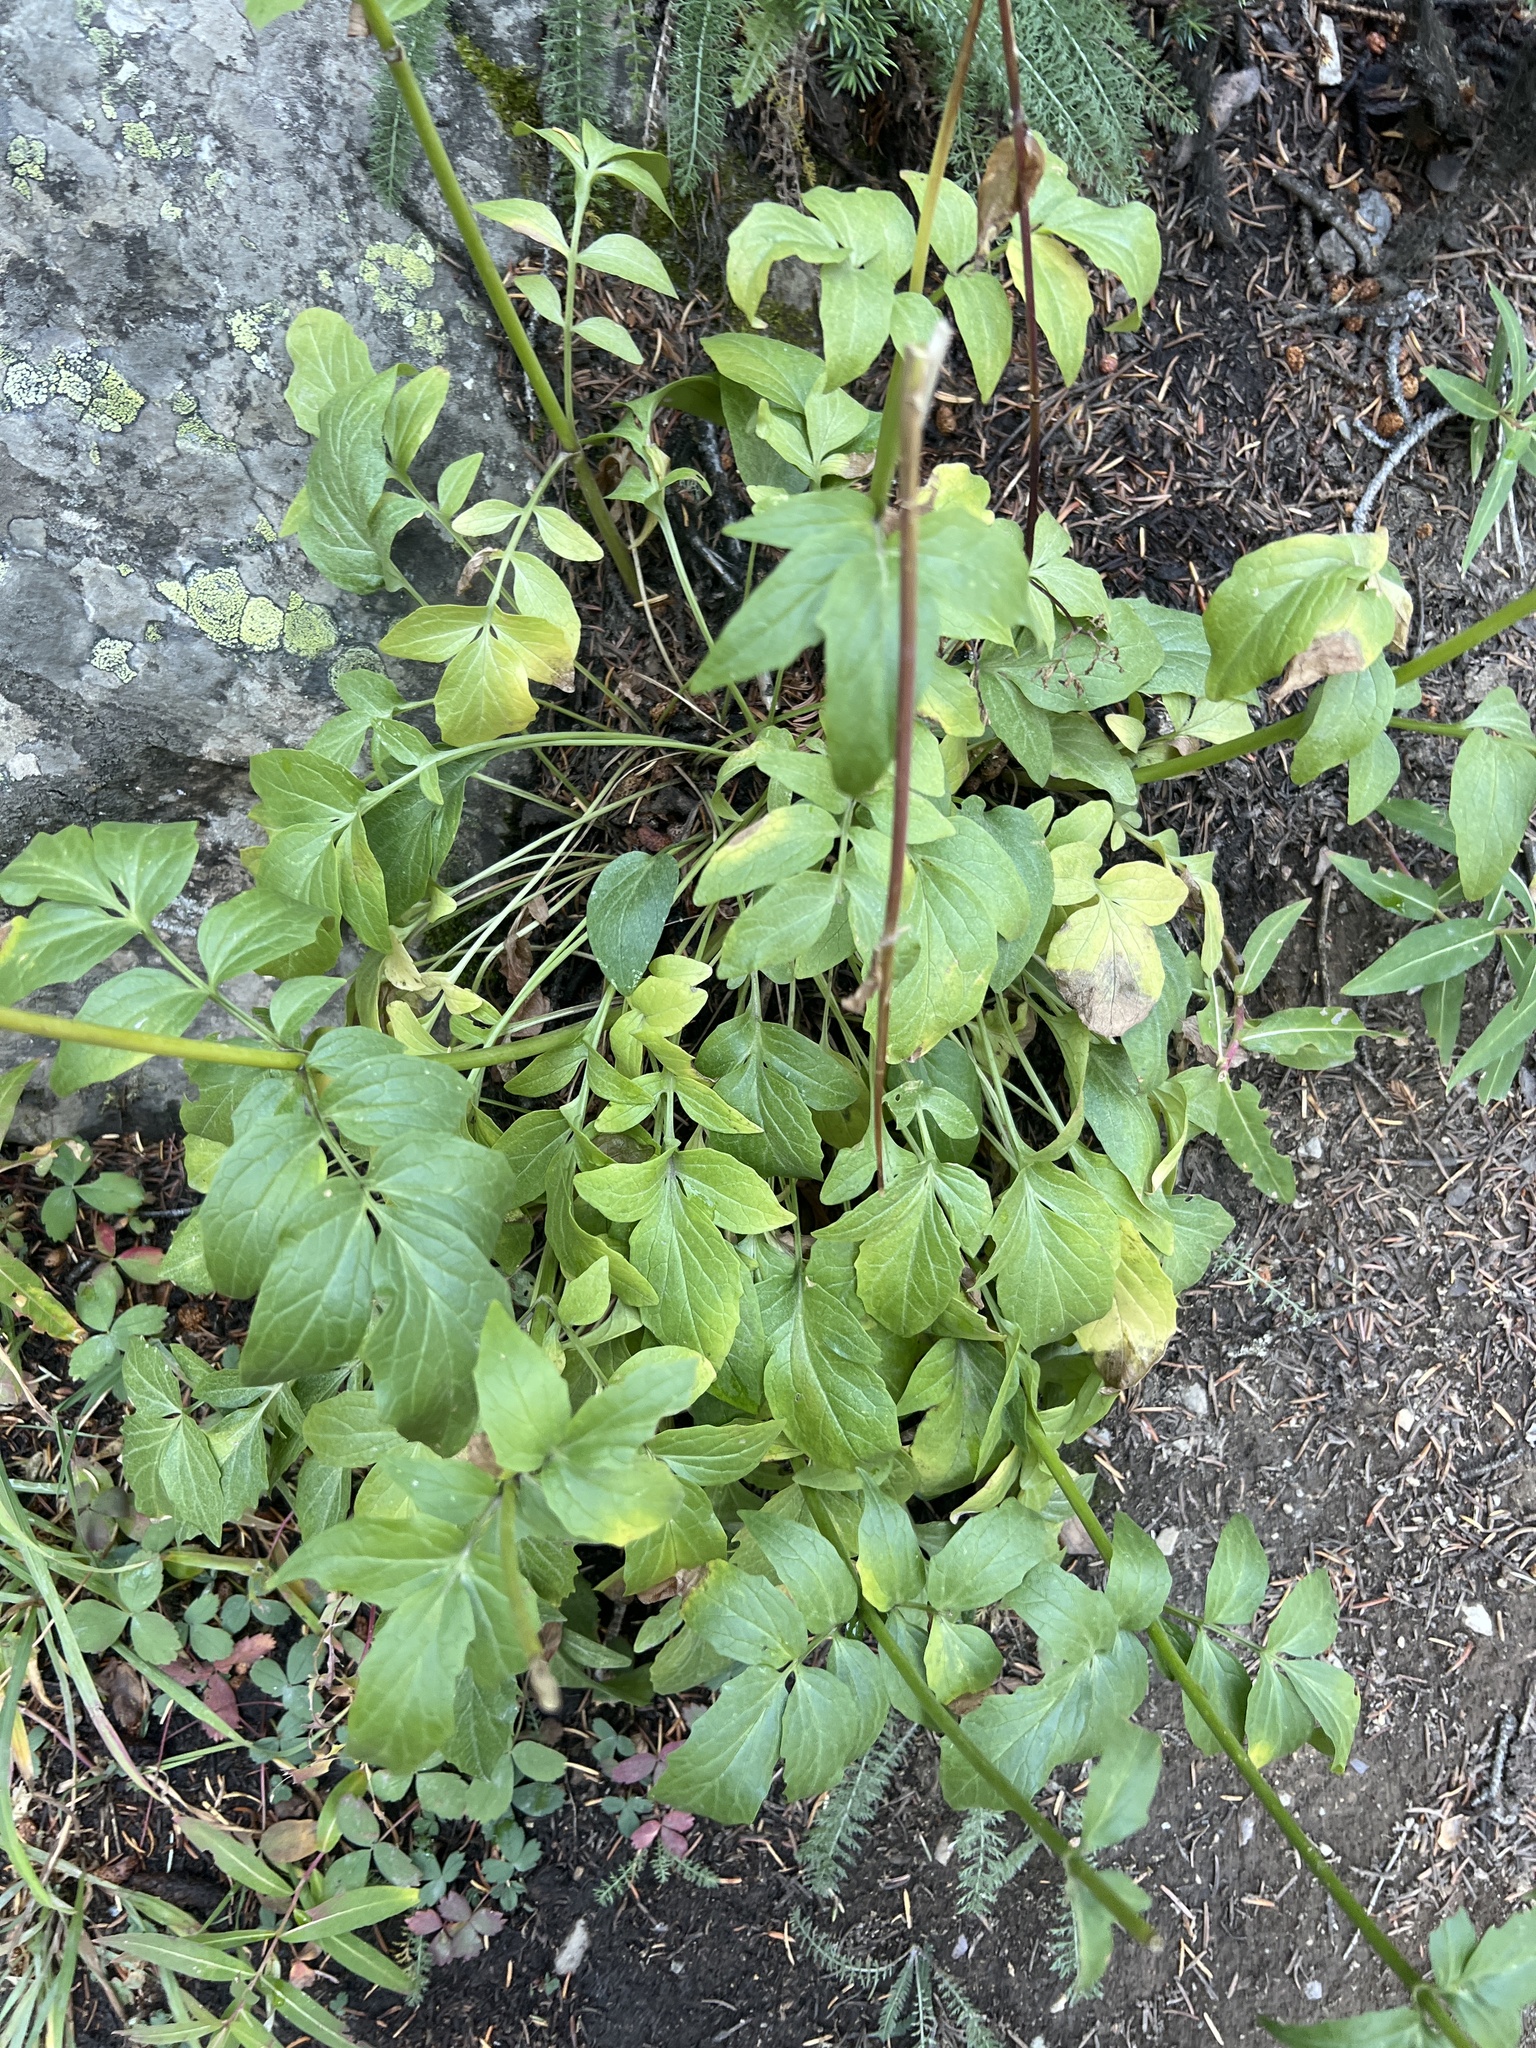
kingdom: Plantae
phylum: Tracheophyta
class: Magnoliopsida
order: Dipsacales
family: Caprifoliaceae
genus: Valeriana
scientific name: Valeriana sitchensis
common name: Pacific valerian
